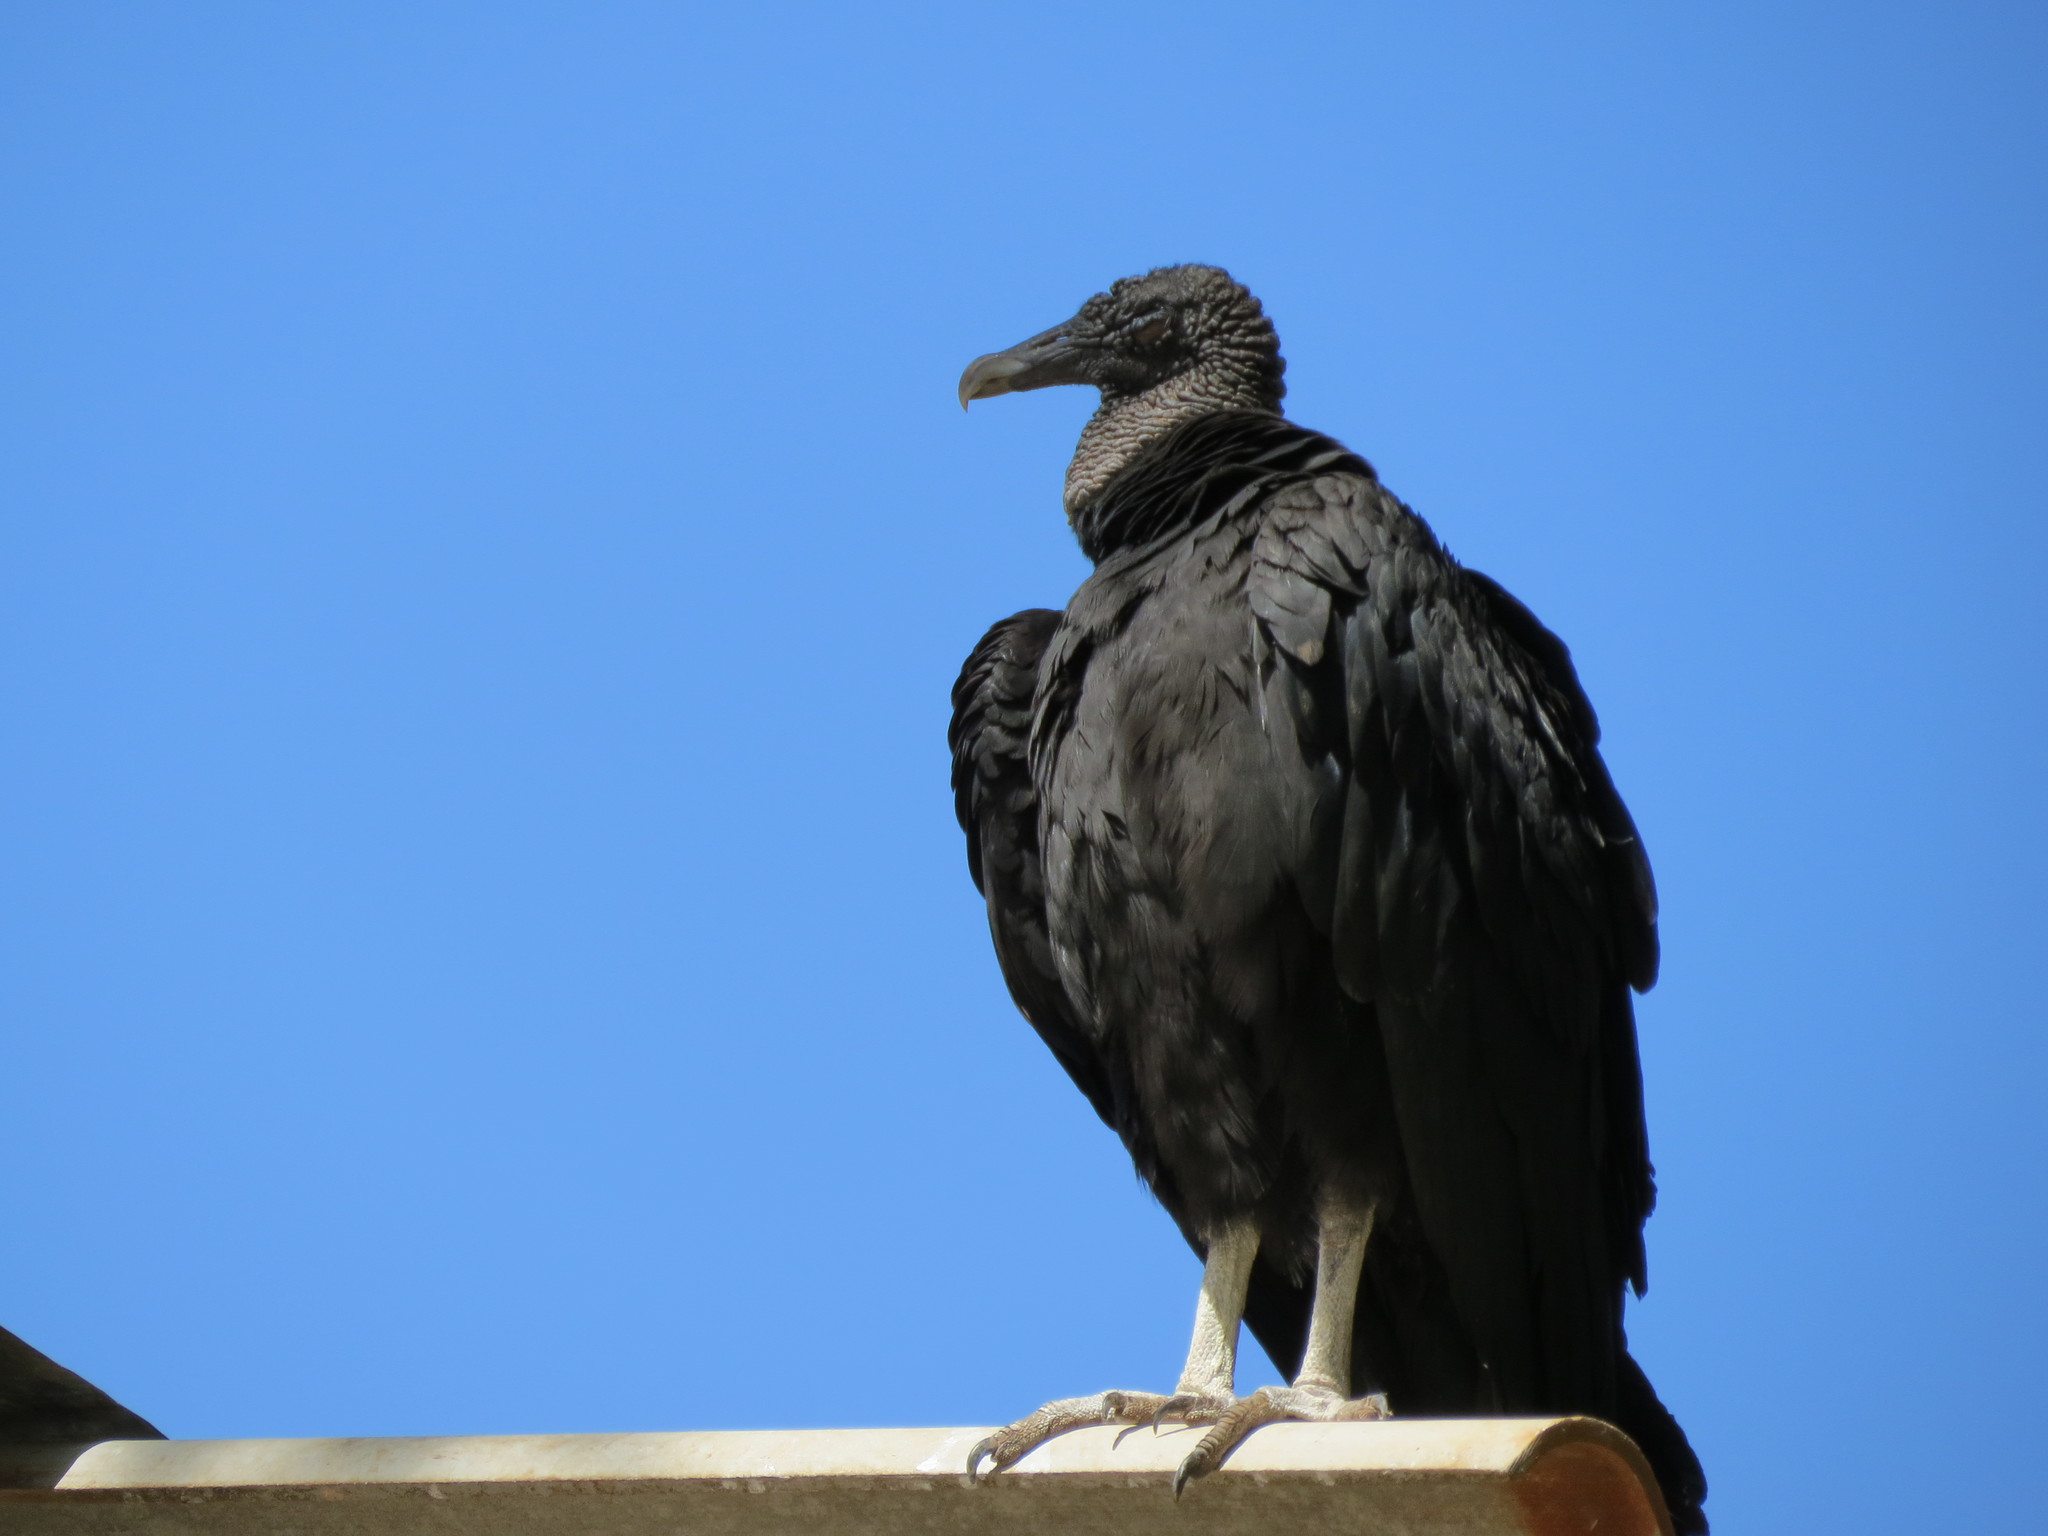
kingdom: Animalia
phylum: Chordata
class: Aves
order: Accipitriformes
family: Cathartidae
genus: Coragyps
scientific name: Coragyps atratus
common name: Black vulture
